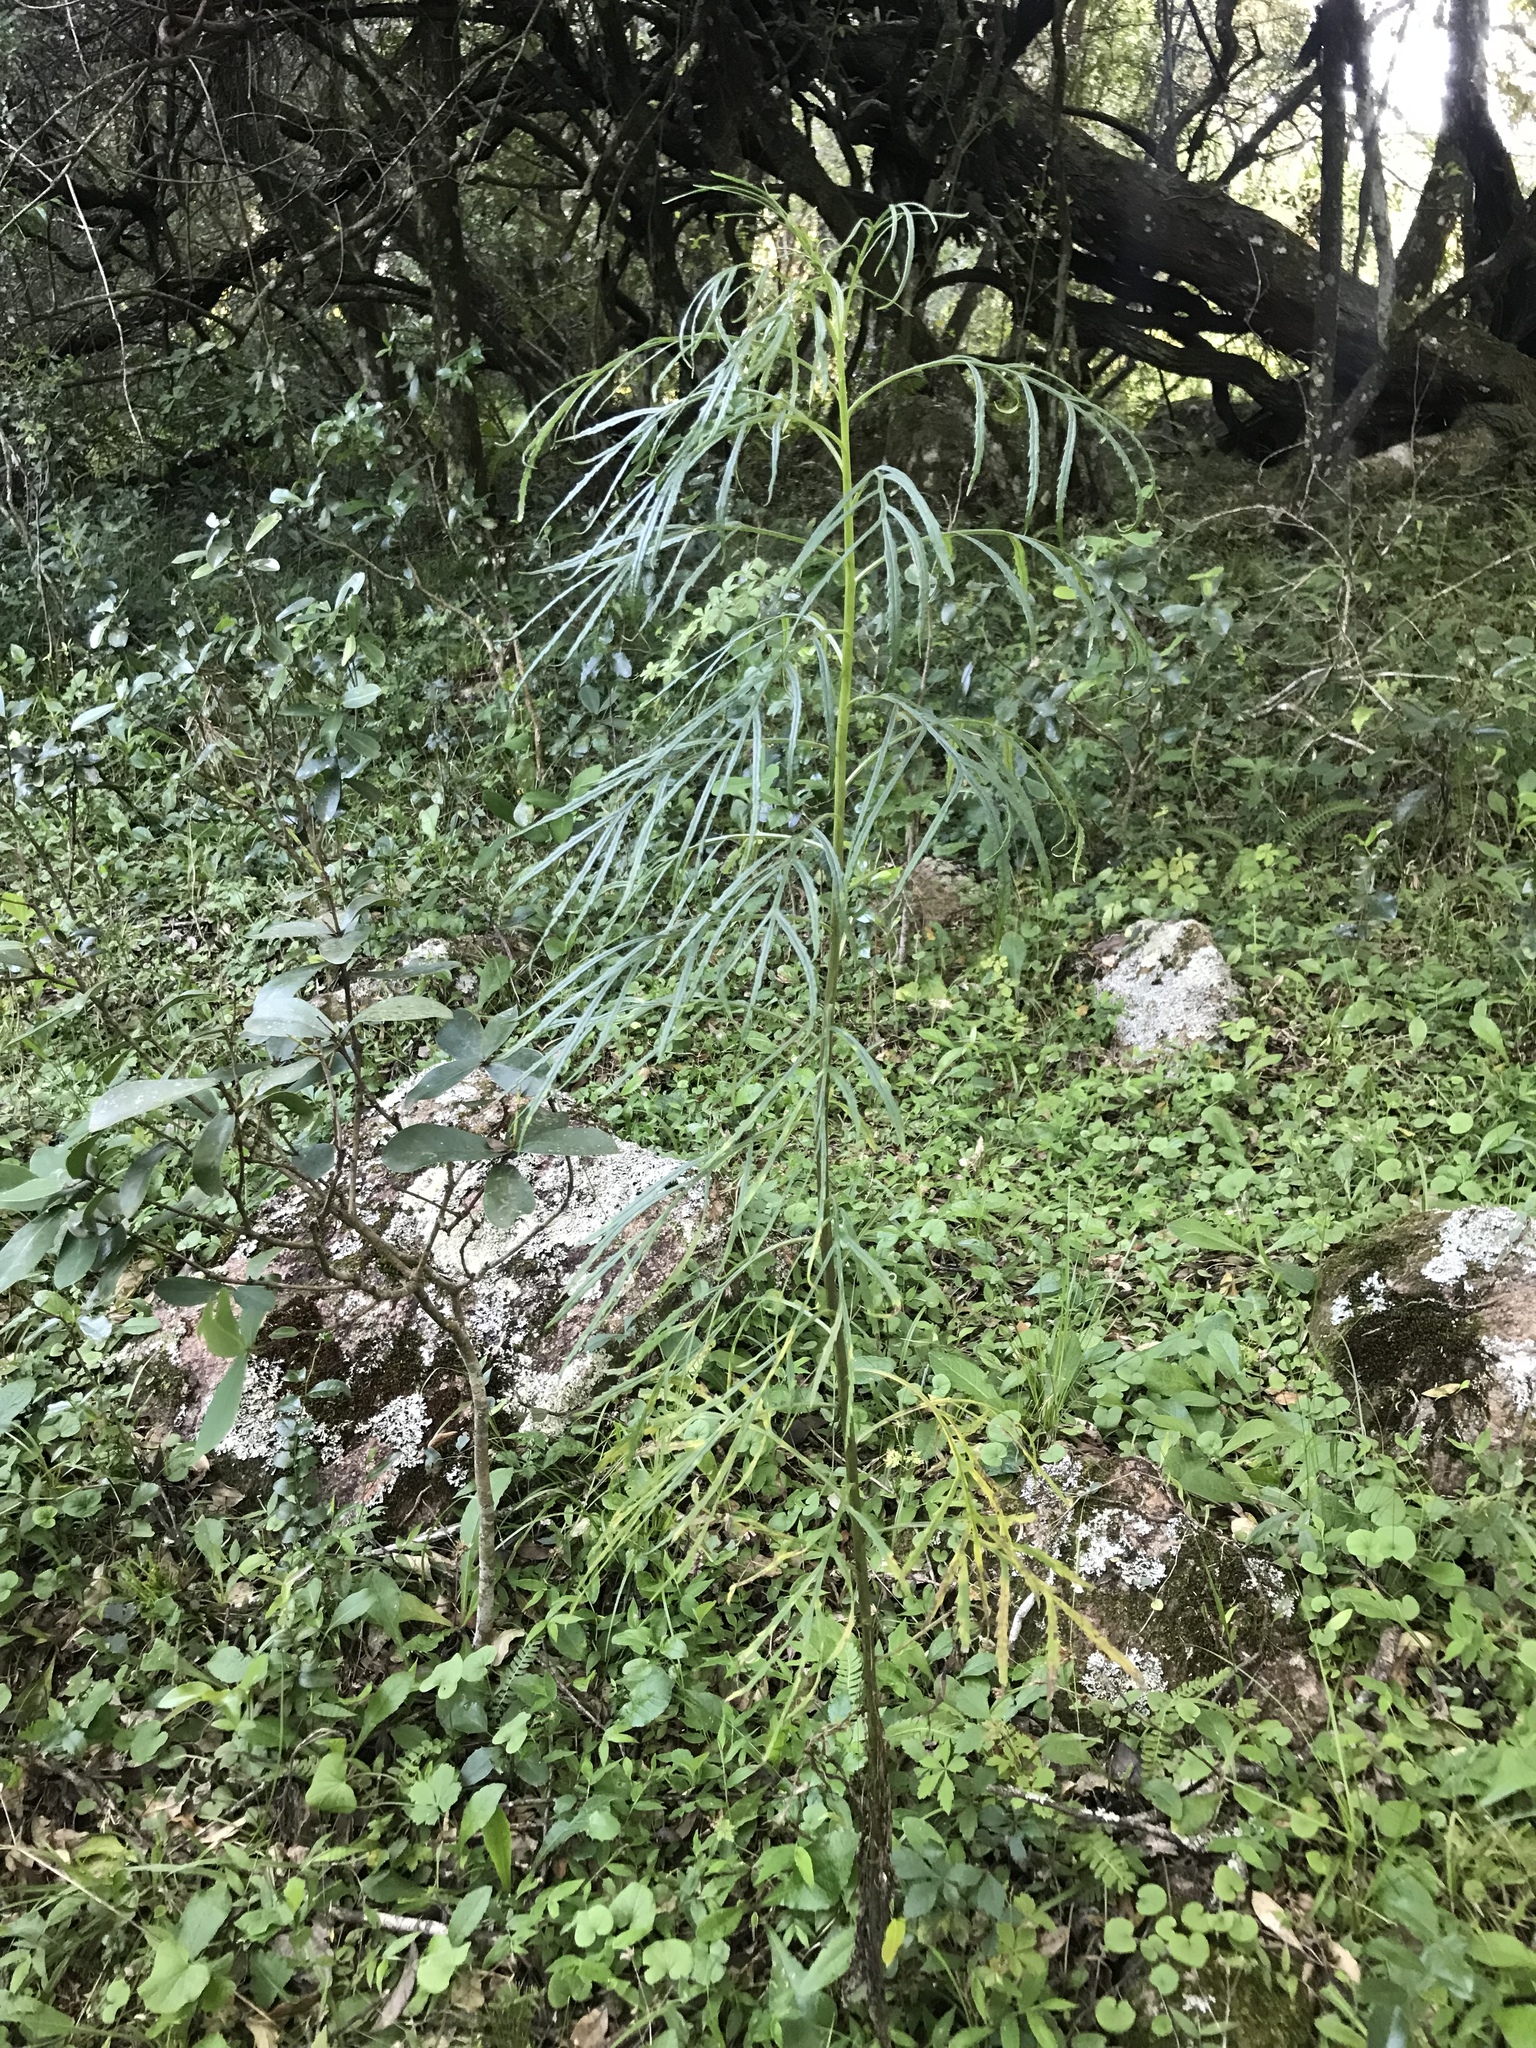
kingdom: Plantae
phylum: Tracheophyta
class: Magnoliopsida
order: Asterales
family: Asteraceae
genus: Senecio
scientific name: Senecio brasiliensis
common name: Hemp-leaf ragwort
